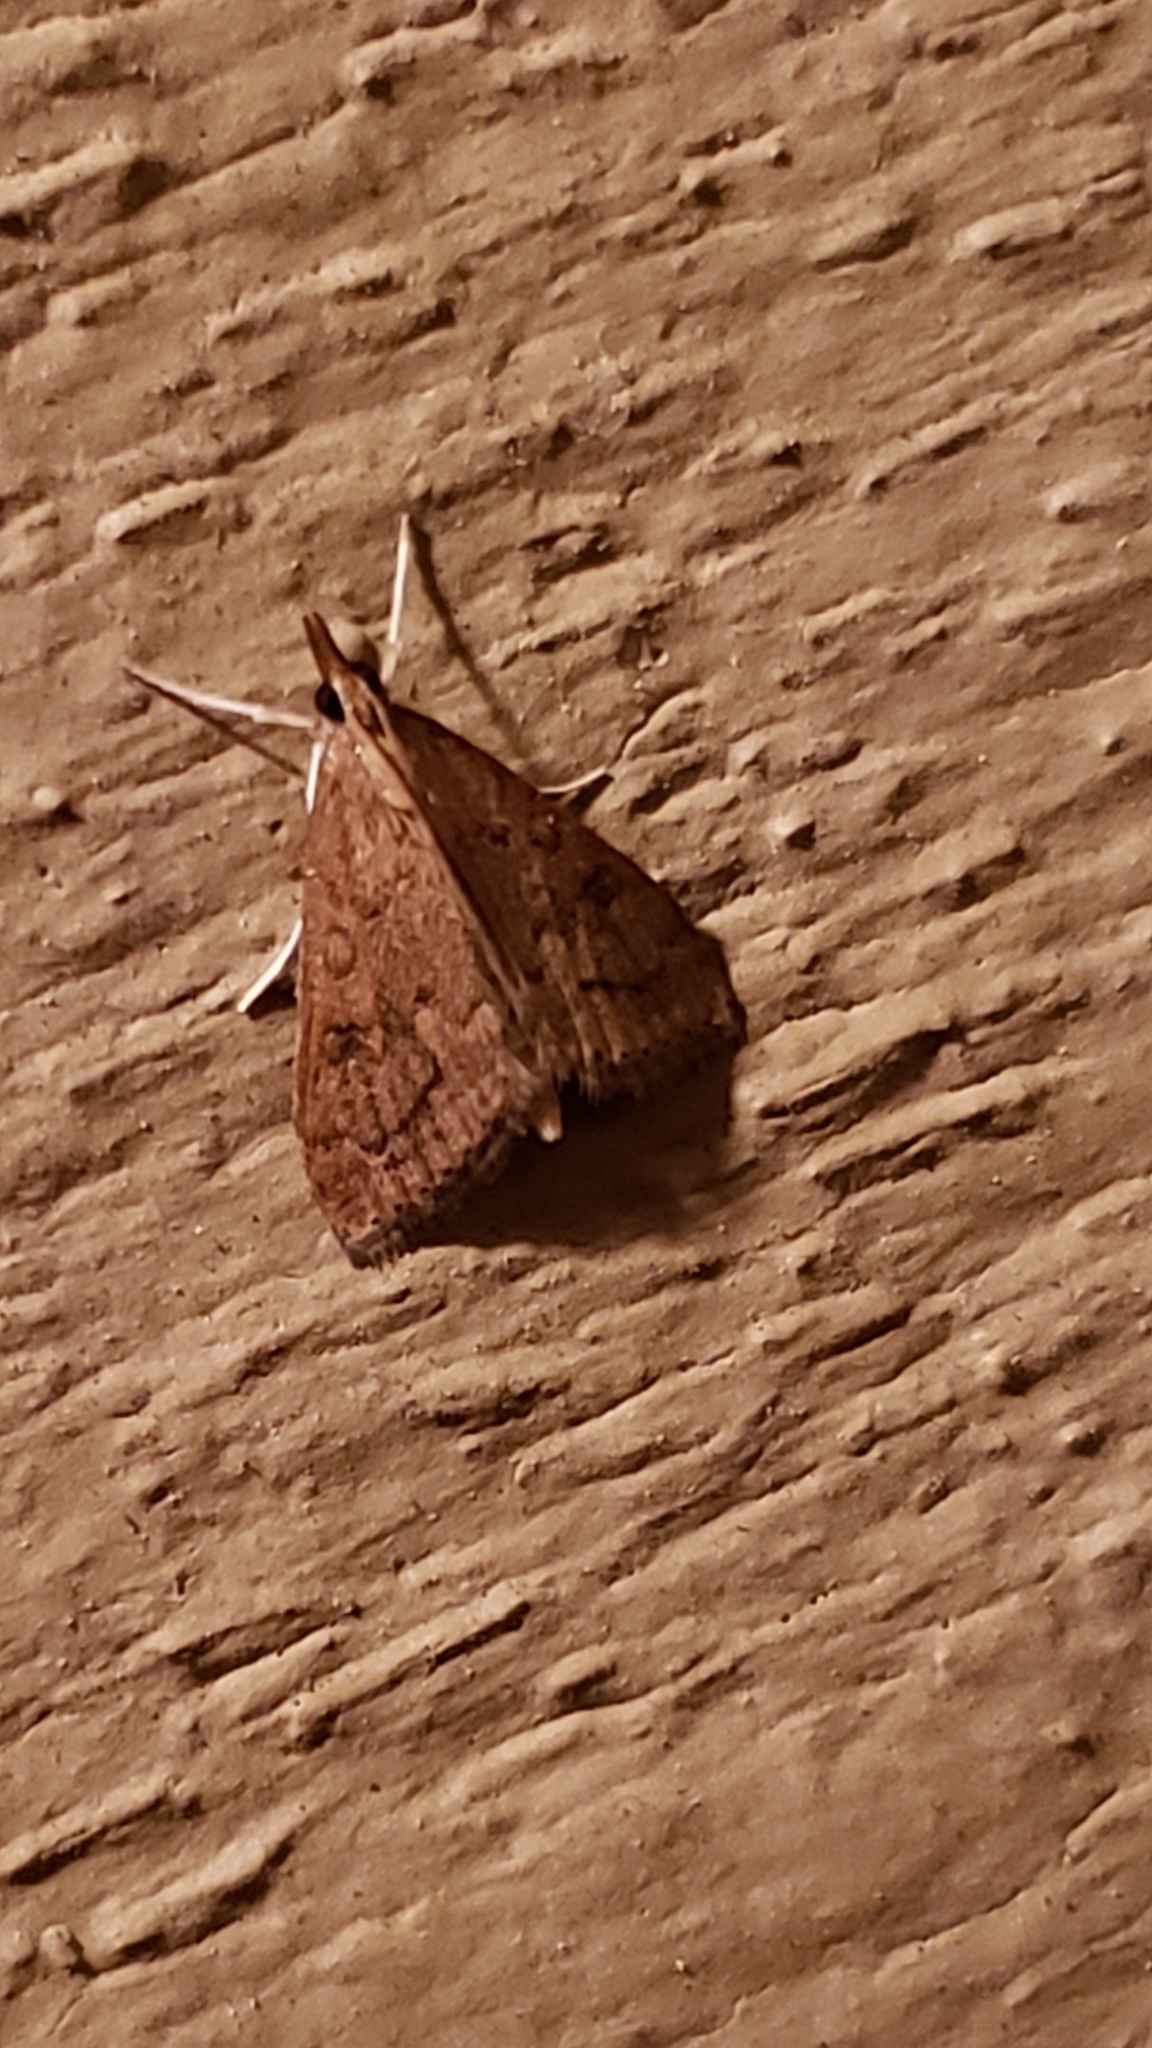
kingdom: Animalia
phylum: Arthropoda
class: Insecta
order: Lepidoptera
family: Crambidae
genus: Udea
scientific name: Udea rubigalis
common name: Celery leaftier moth
